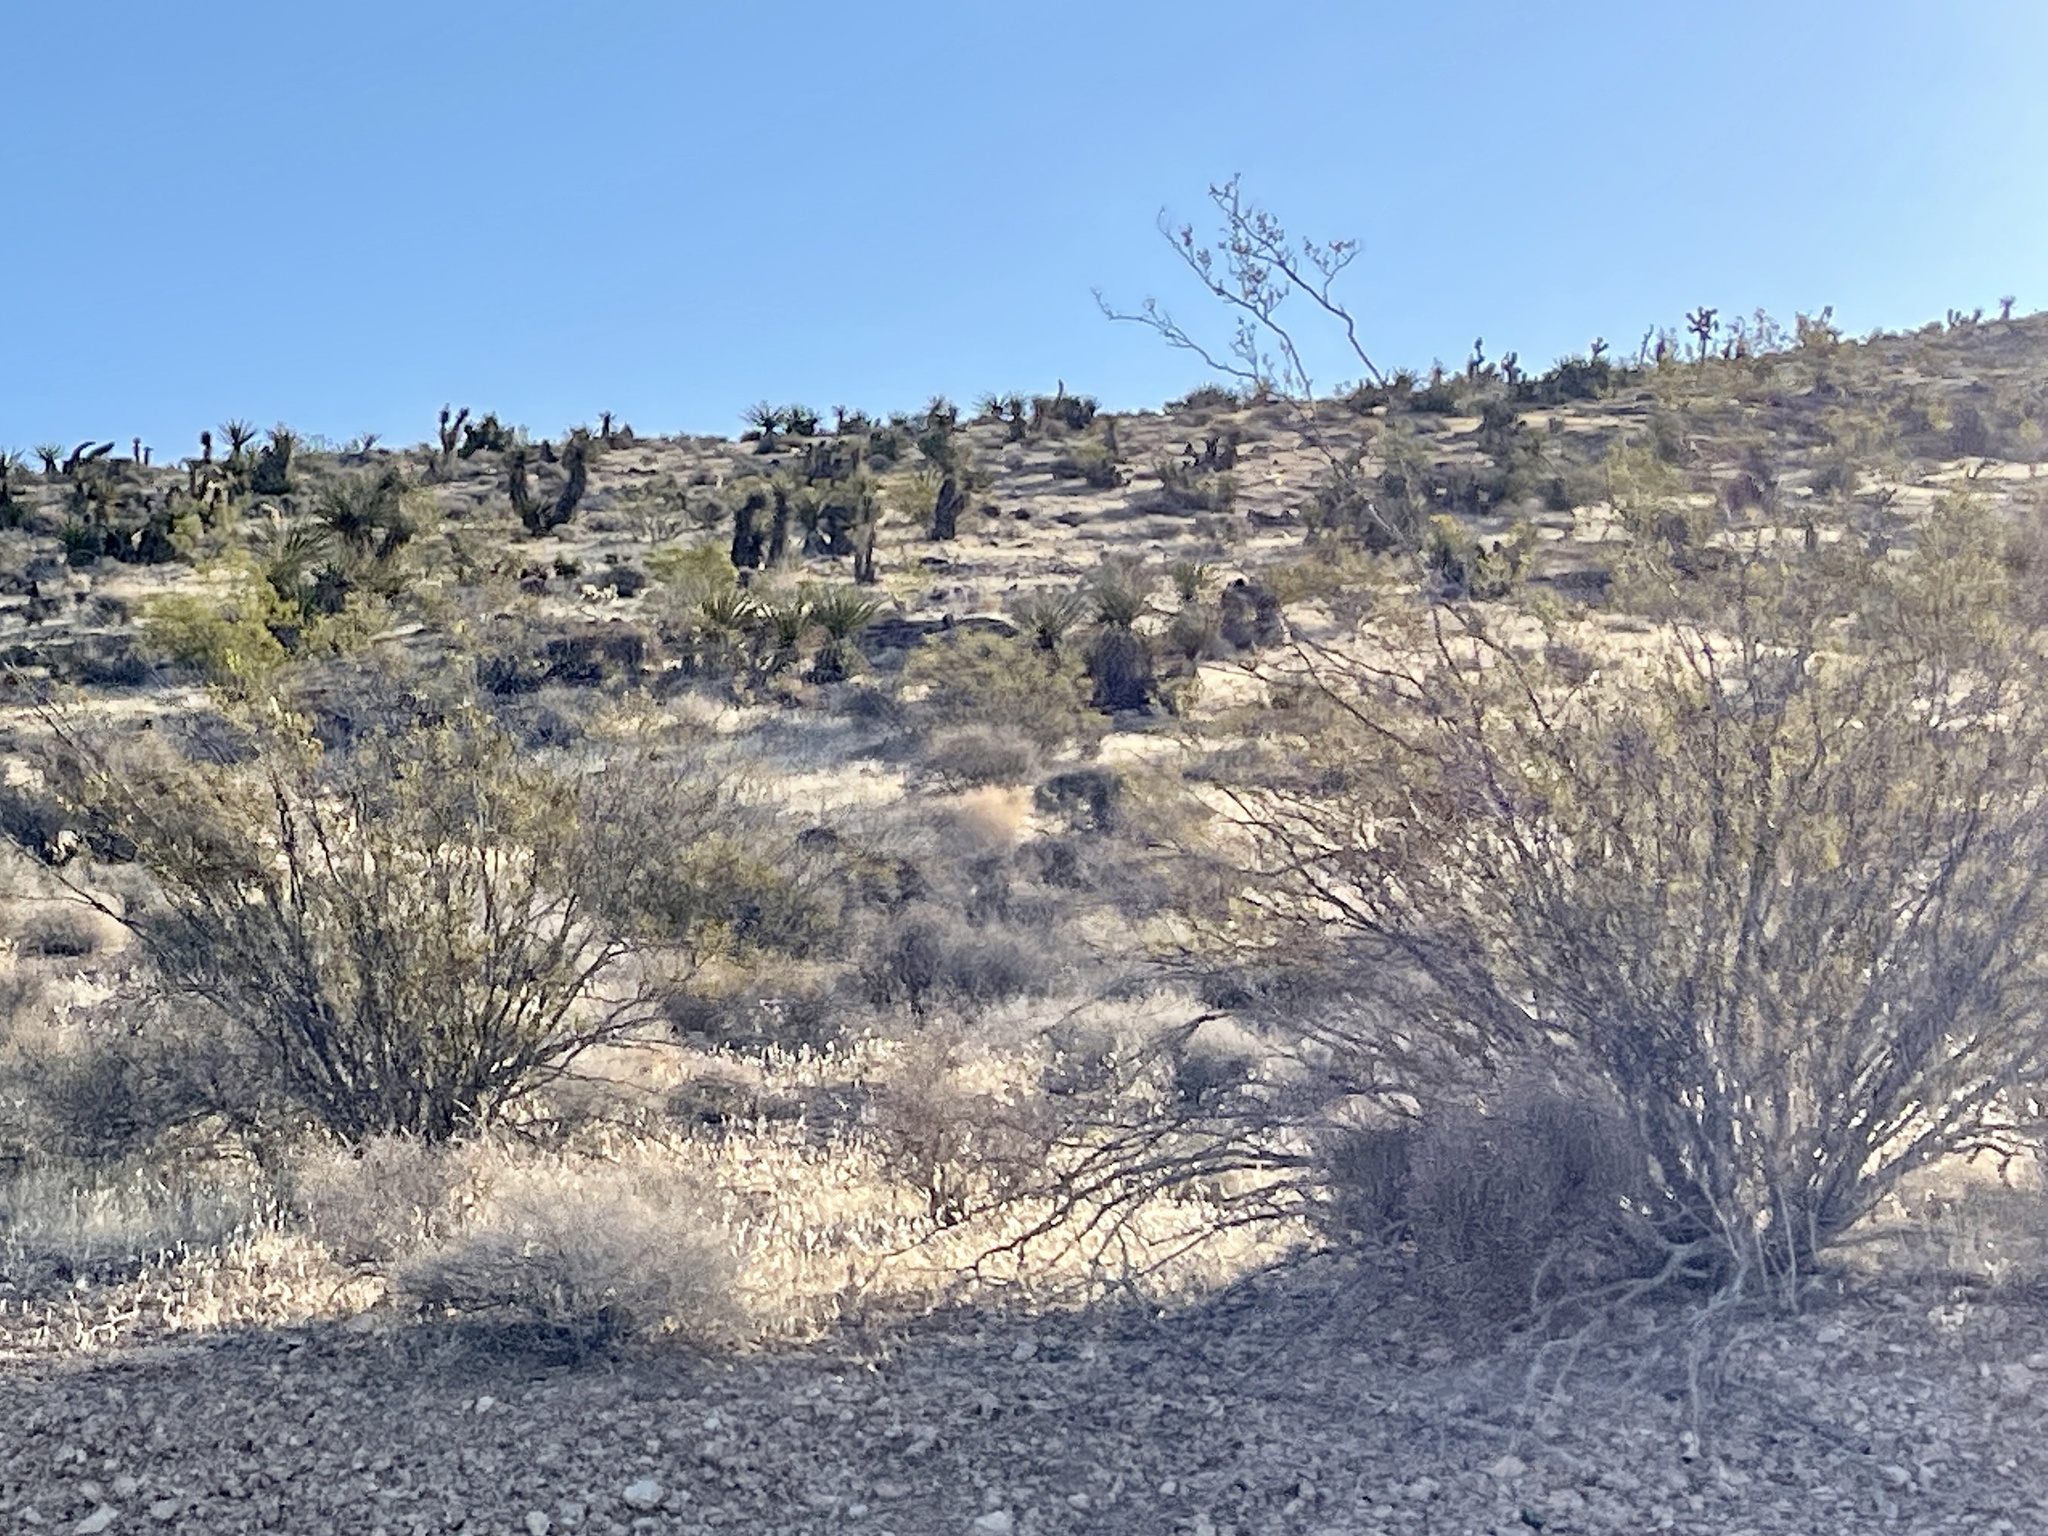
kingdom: Plantae
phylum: Tracheophyta
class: Magnoliopsida
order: Zygophyllales
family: Zygophyllaceae
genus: Larrea
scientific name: Larrea tridentata
